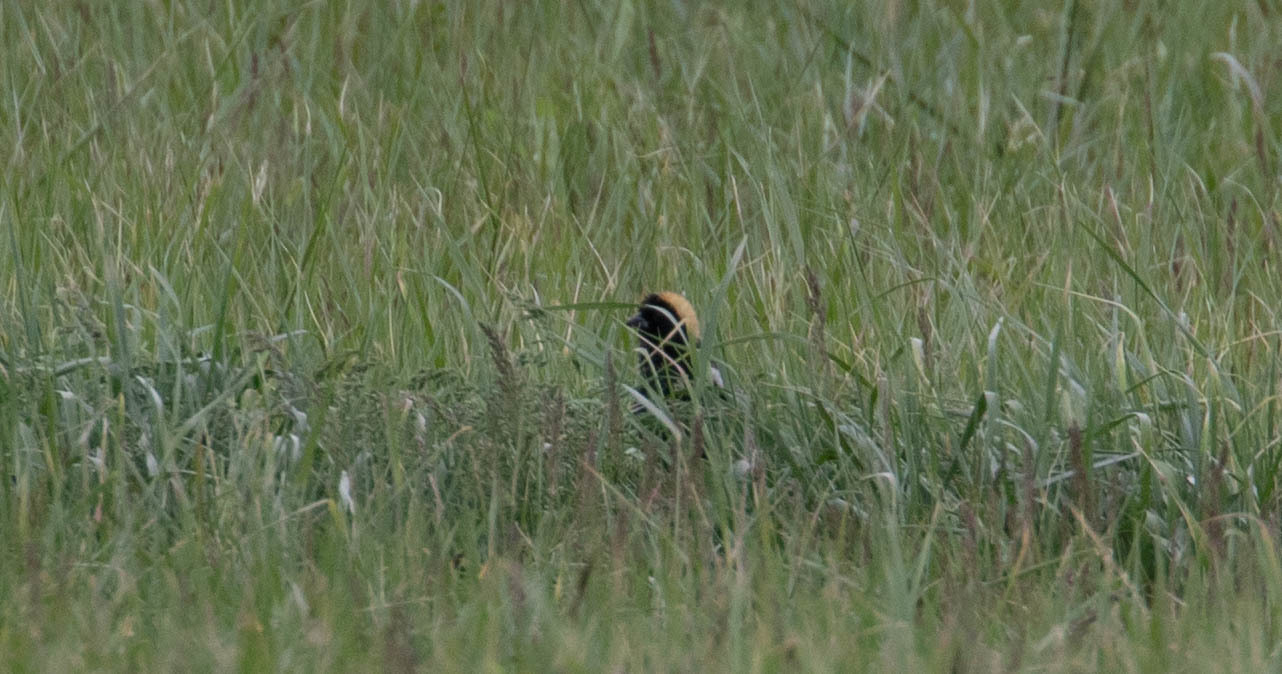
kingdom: Animalia
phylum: Chordata
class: Aves
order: Passeriformes
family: Icteridae
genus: Dolichonyx
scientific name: Dolichonyx oryzivorus
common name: Bobolink
